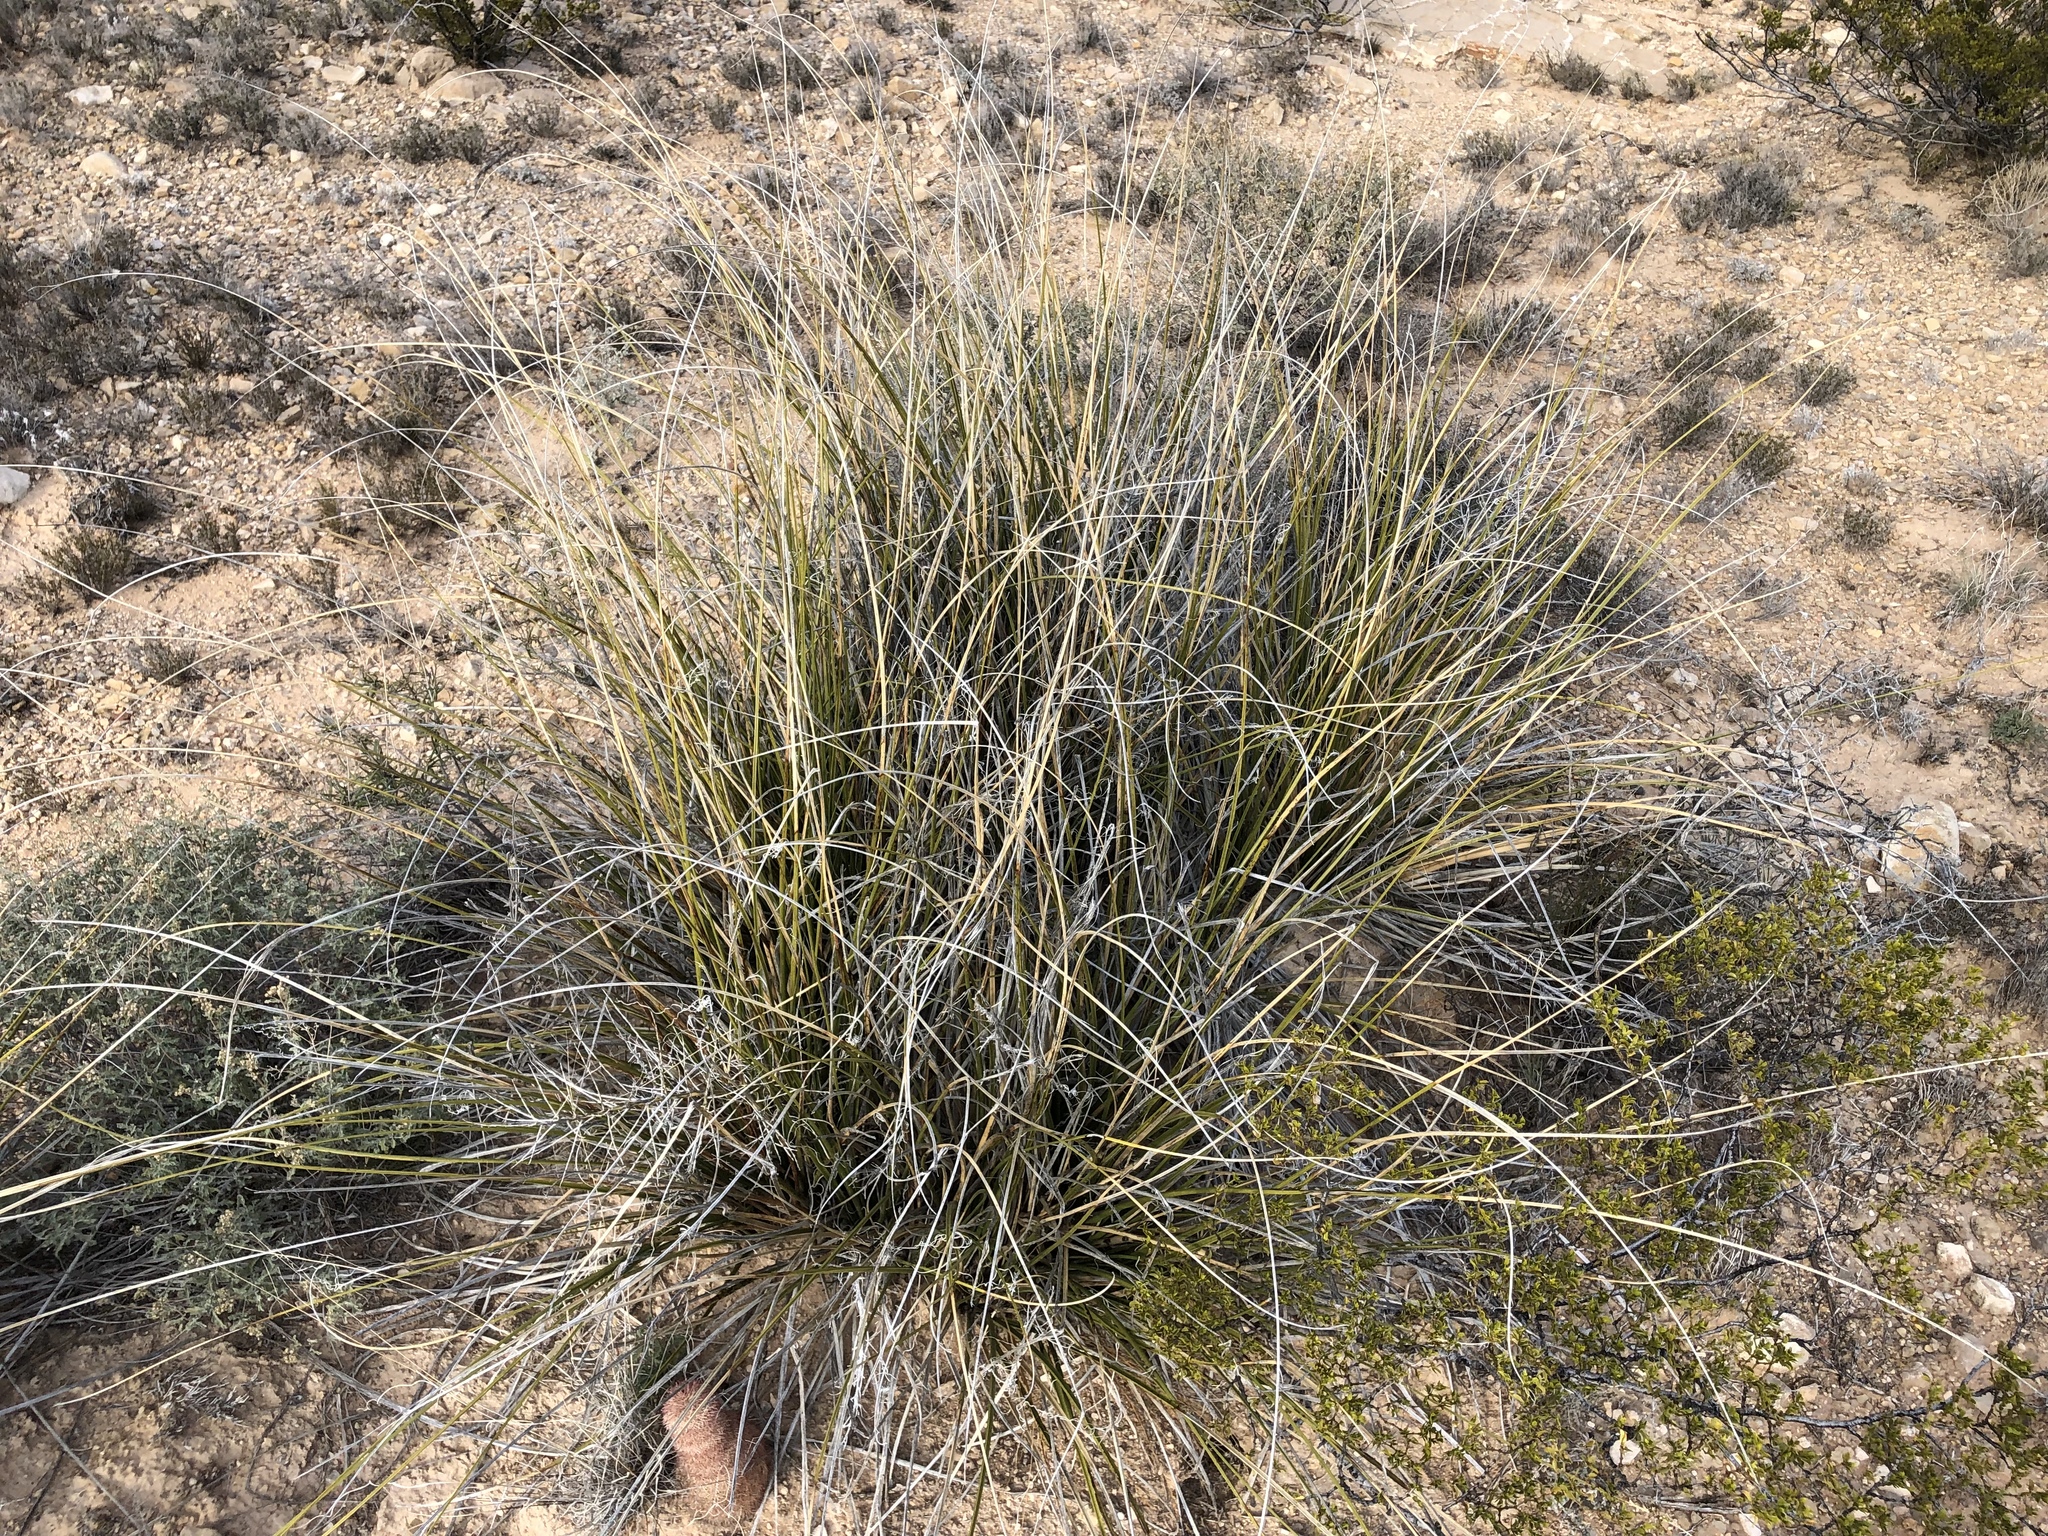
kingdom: Plantae
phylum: Tracheophyta
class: Liliopsida
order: Asparagales
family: Asparagaceae
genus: Nolina
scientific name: Nolina texana
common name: Texas sacahuiste
